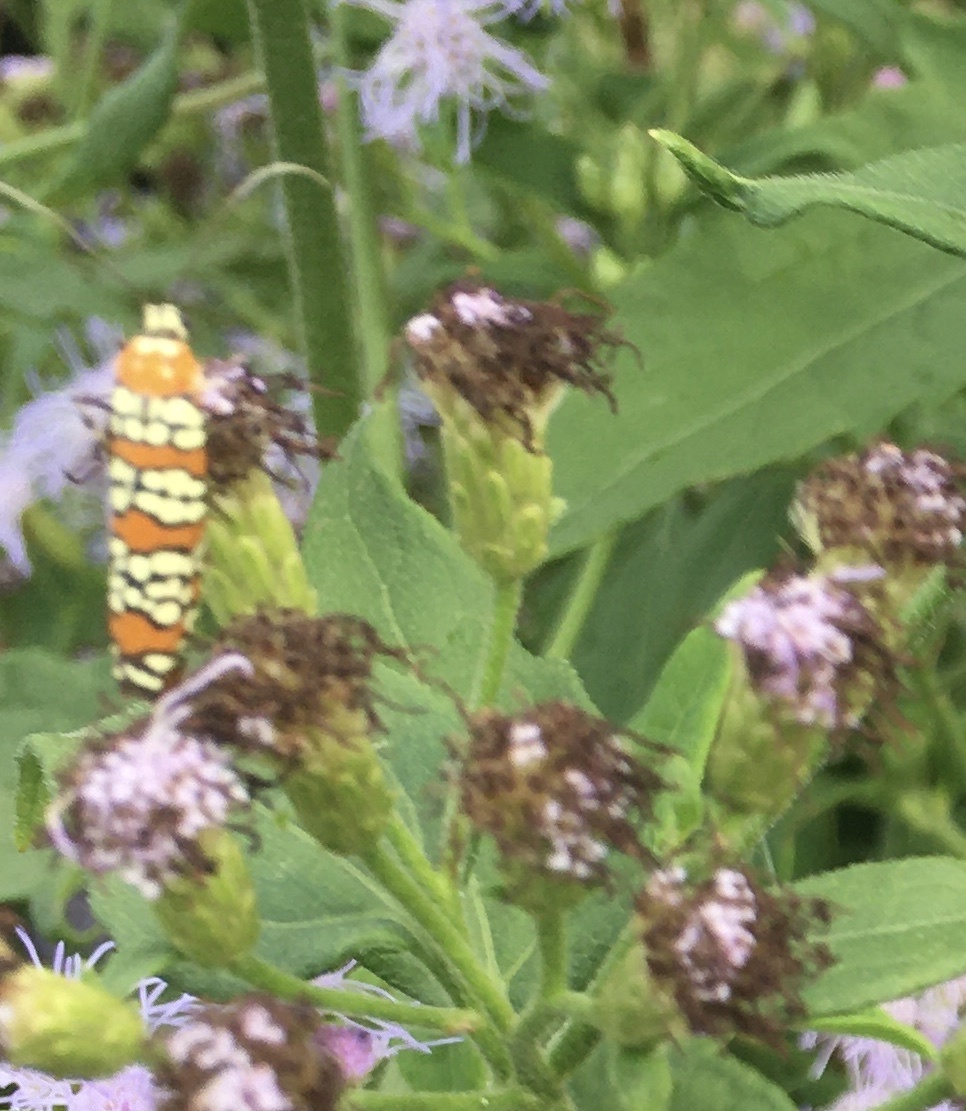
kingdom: Animalia
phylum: Arthropoda
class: Insecta
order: Lepidoptera
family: Attevidae
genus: Atteva
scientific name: Atteva punctella
